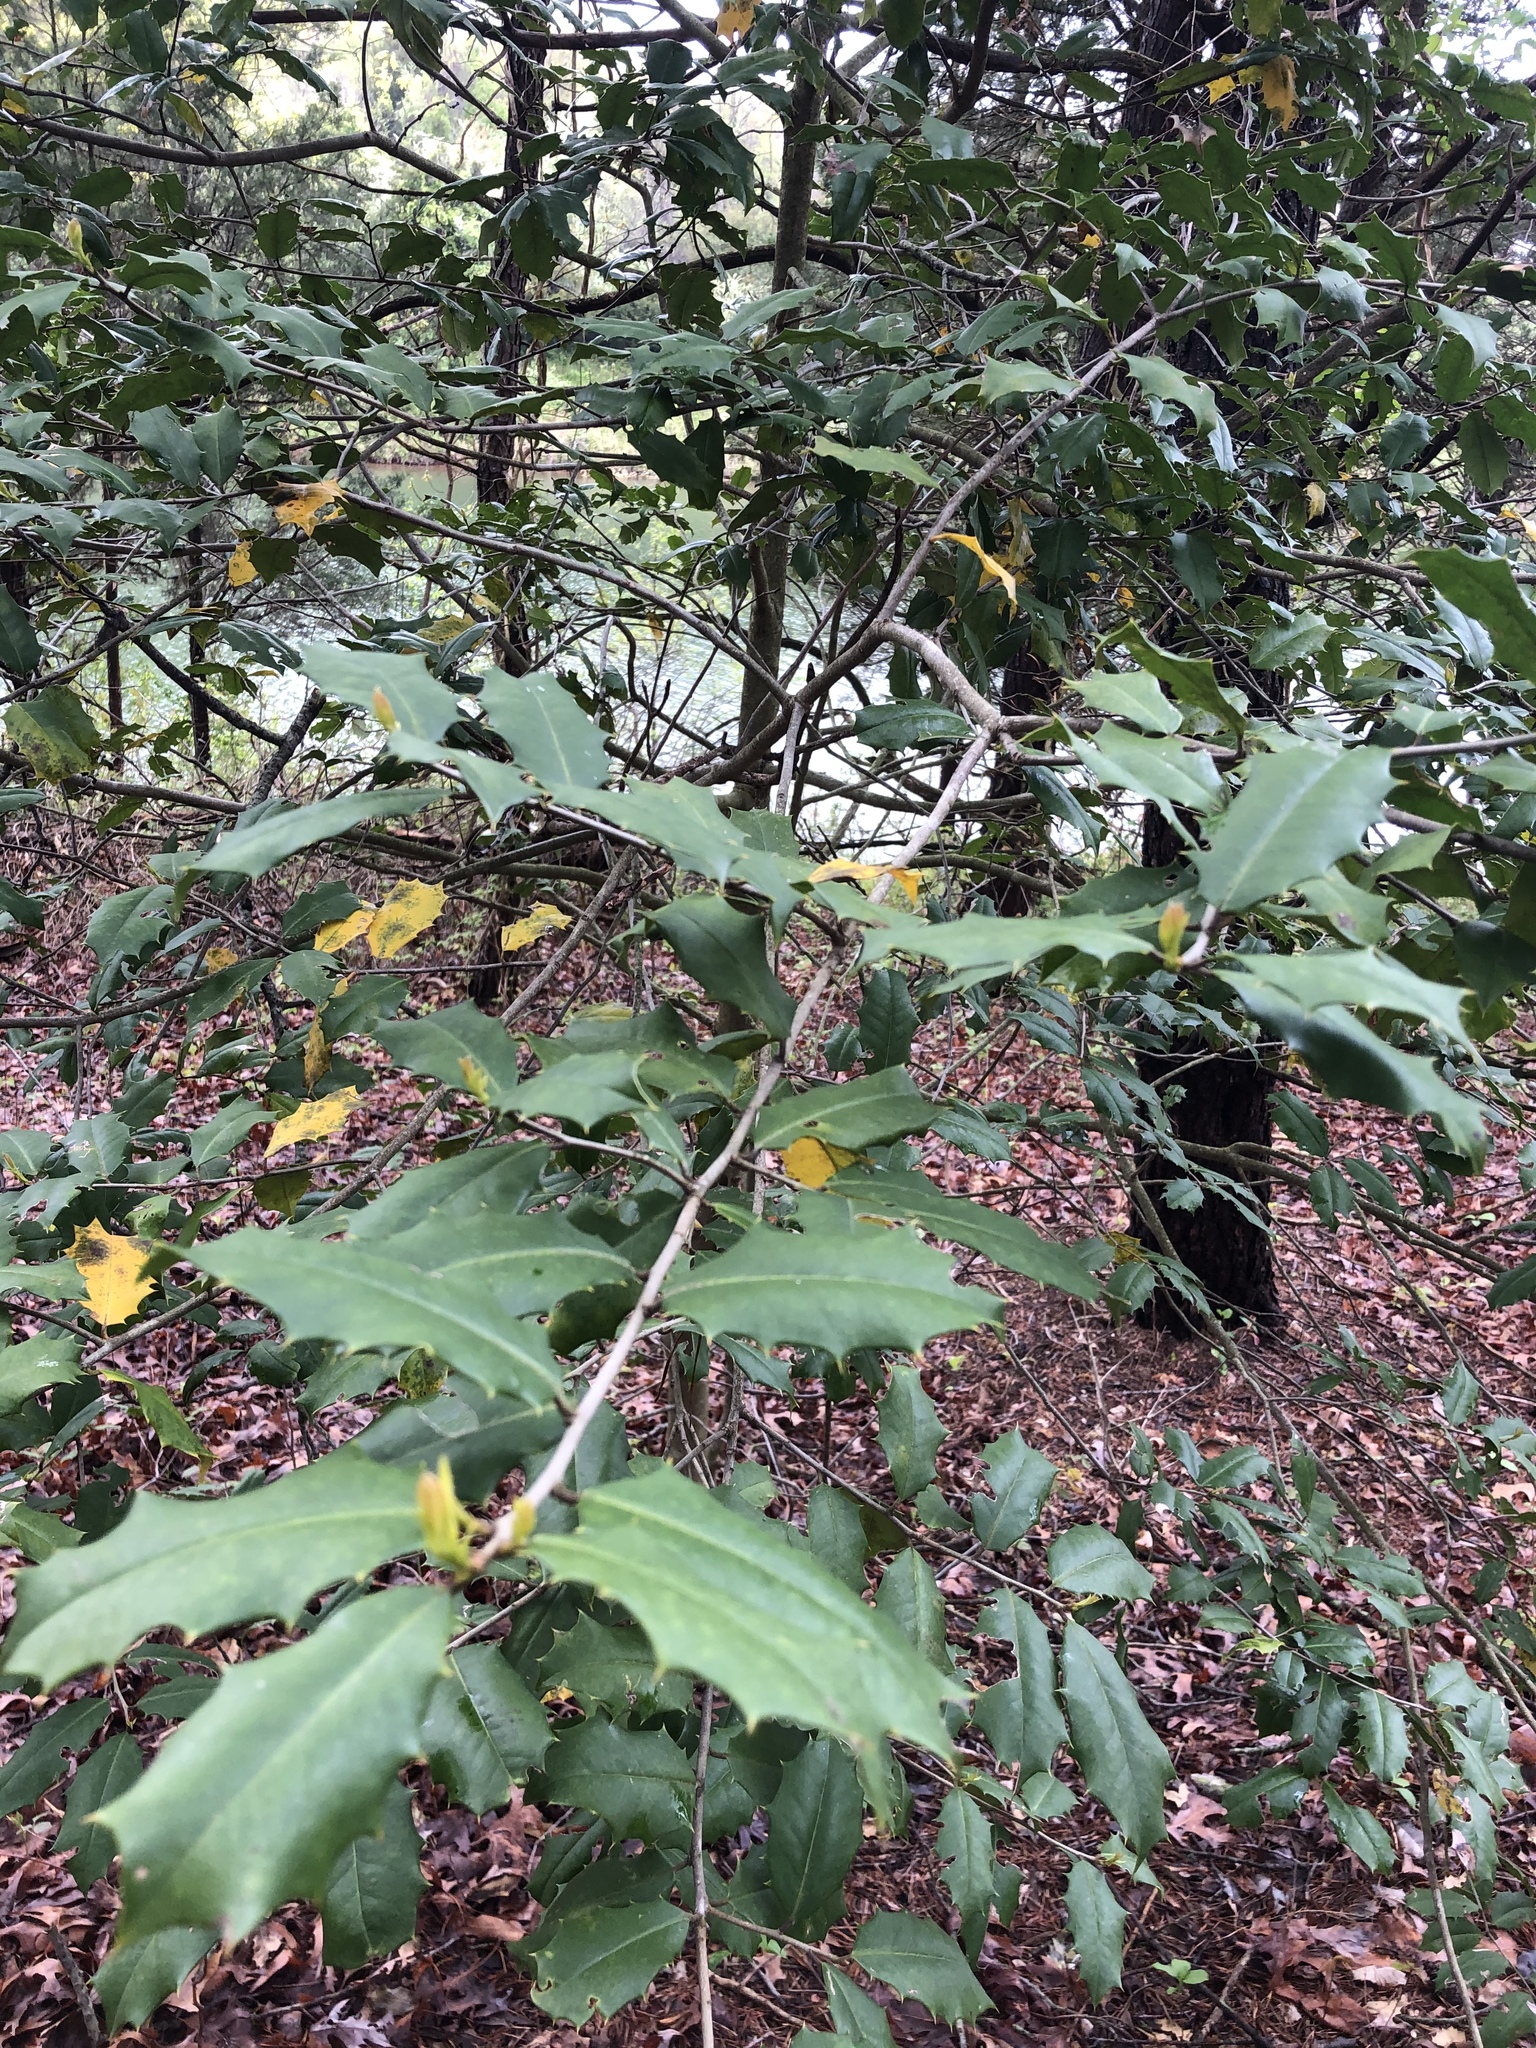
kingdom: Plantae
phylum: Tracheophyta
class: Magnoliopsida
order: Aquifoliales
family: Aquifoliaceae
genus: Ilex
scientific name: Ilex opaca
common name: American holly
